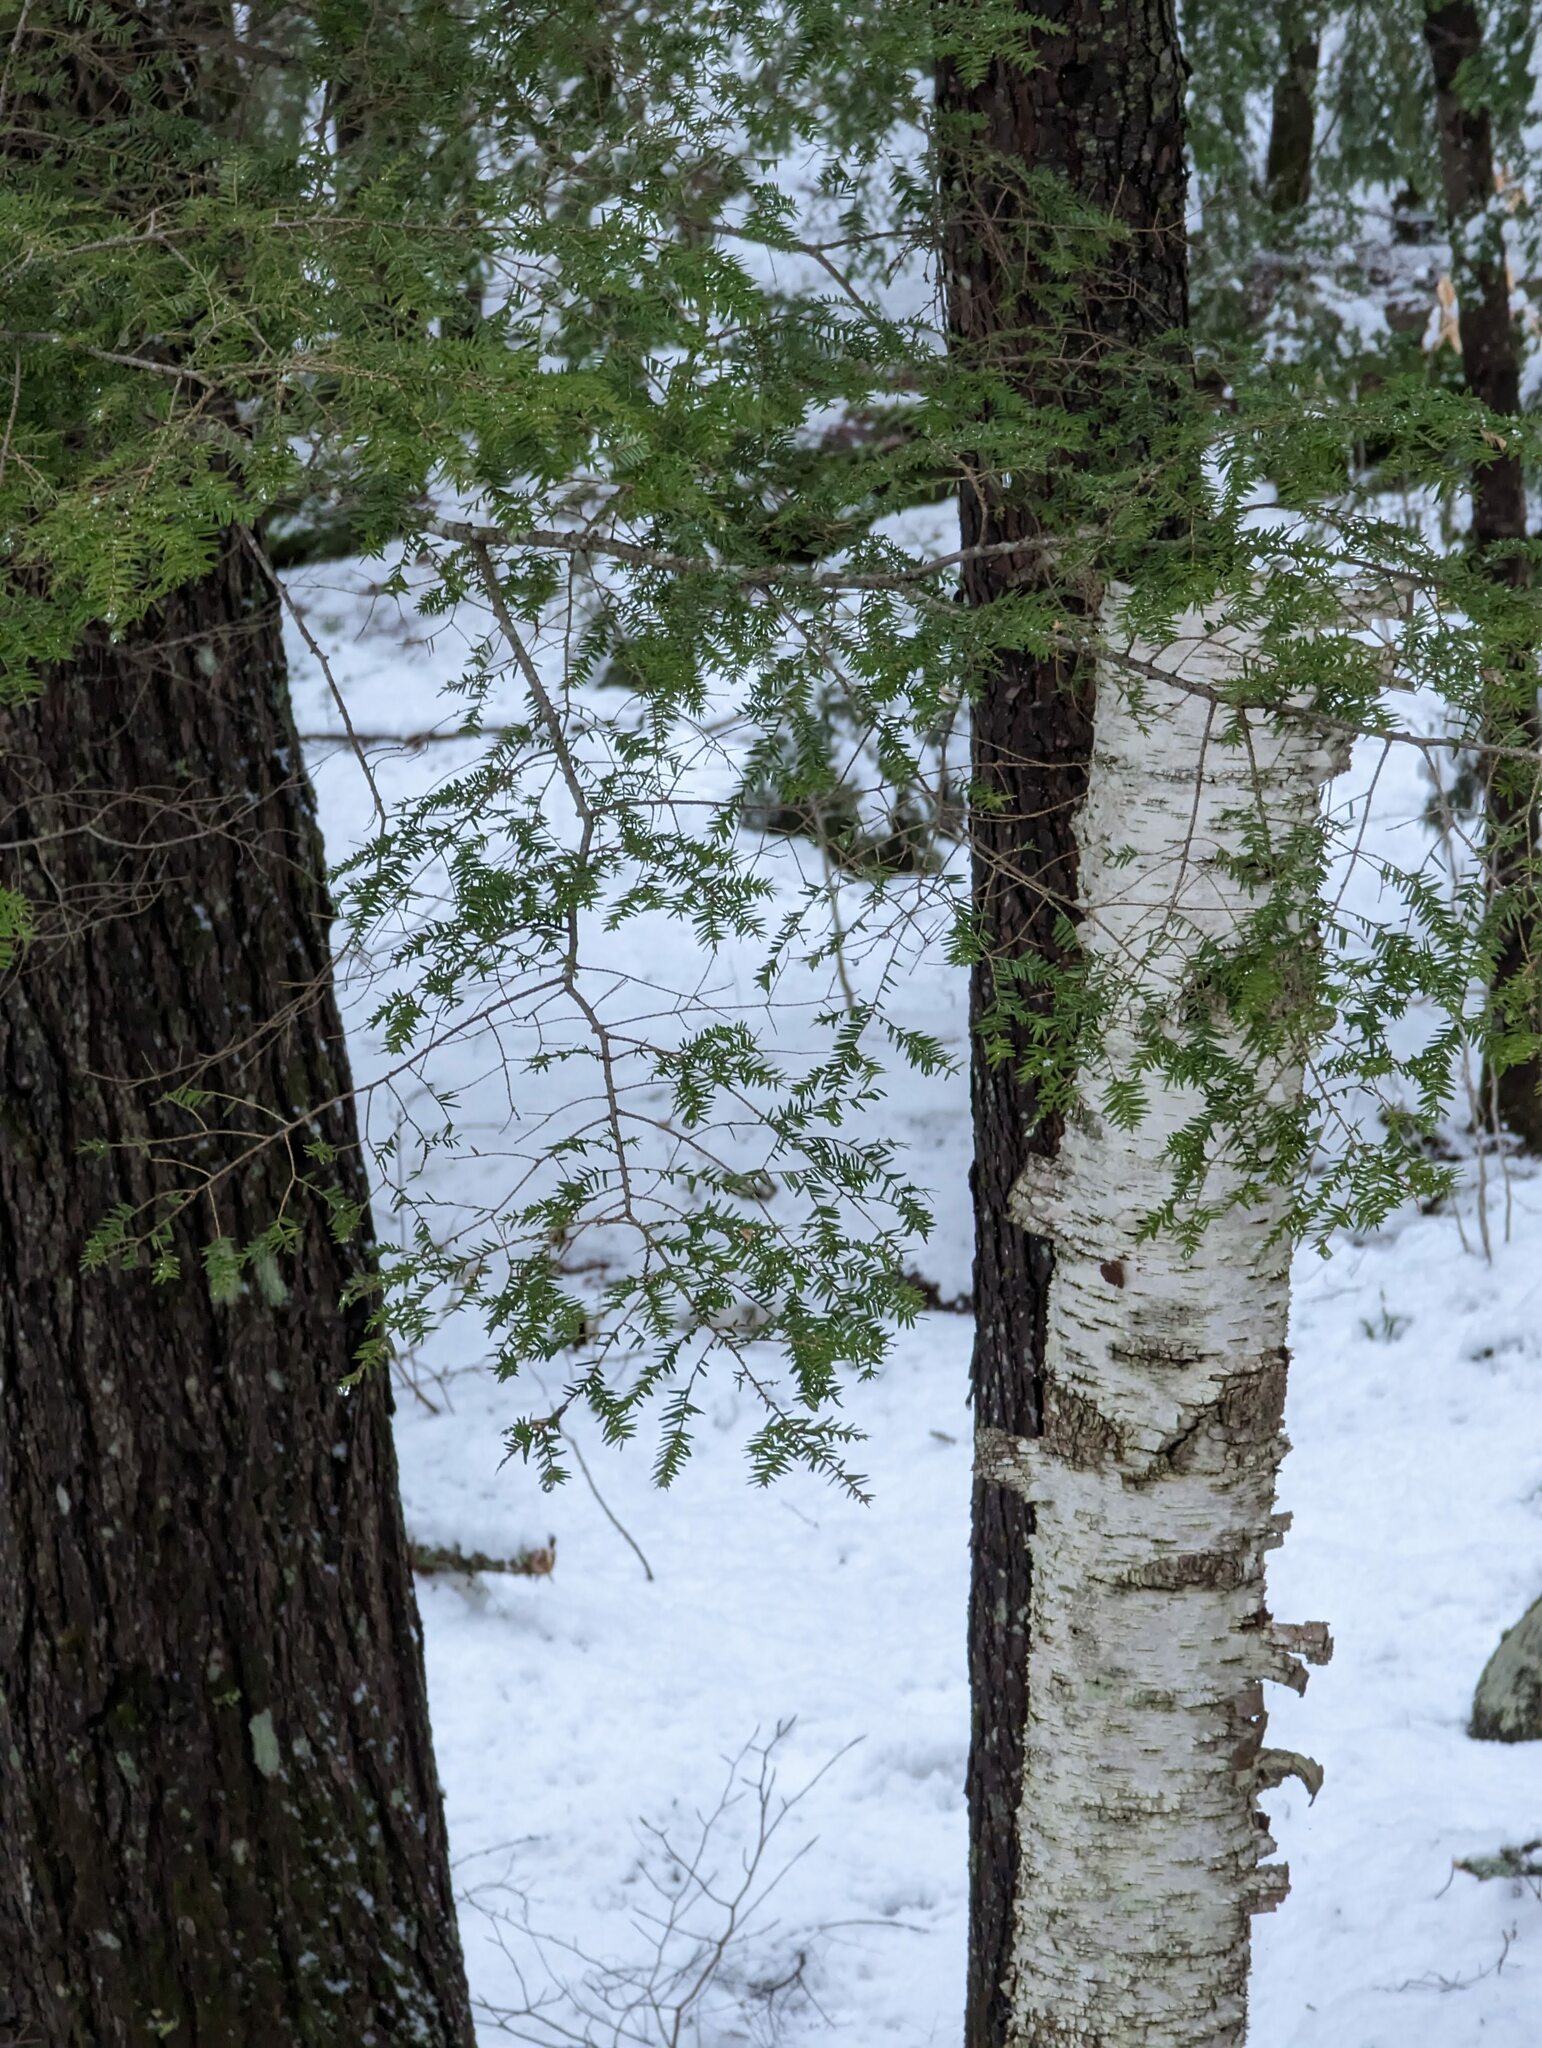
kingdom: Plantae
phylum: Tracheophyta
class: Pinopsida
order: Pinales
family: Pinaceae
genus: Tsuga
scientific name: Tsuga canadensis
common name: Eastern hemlock
